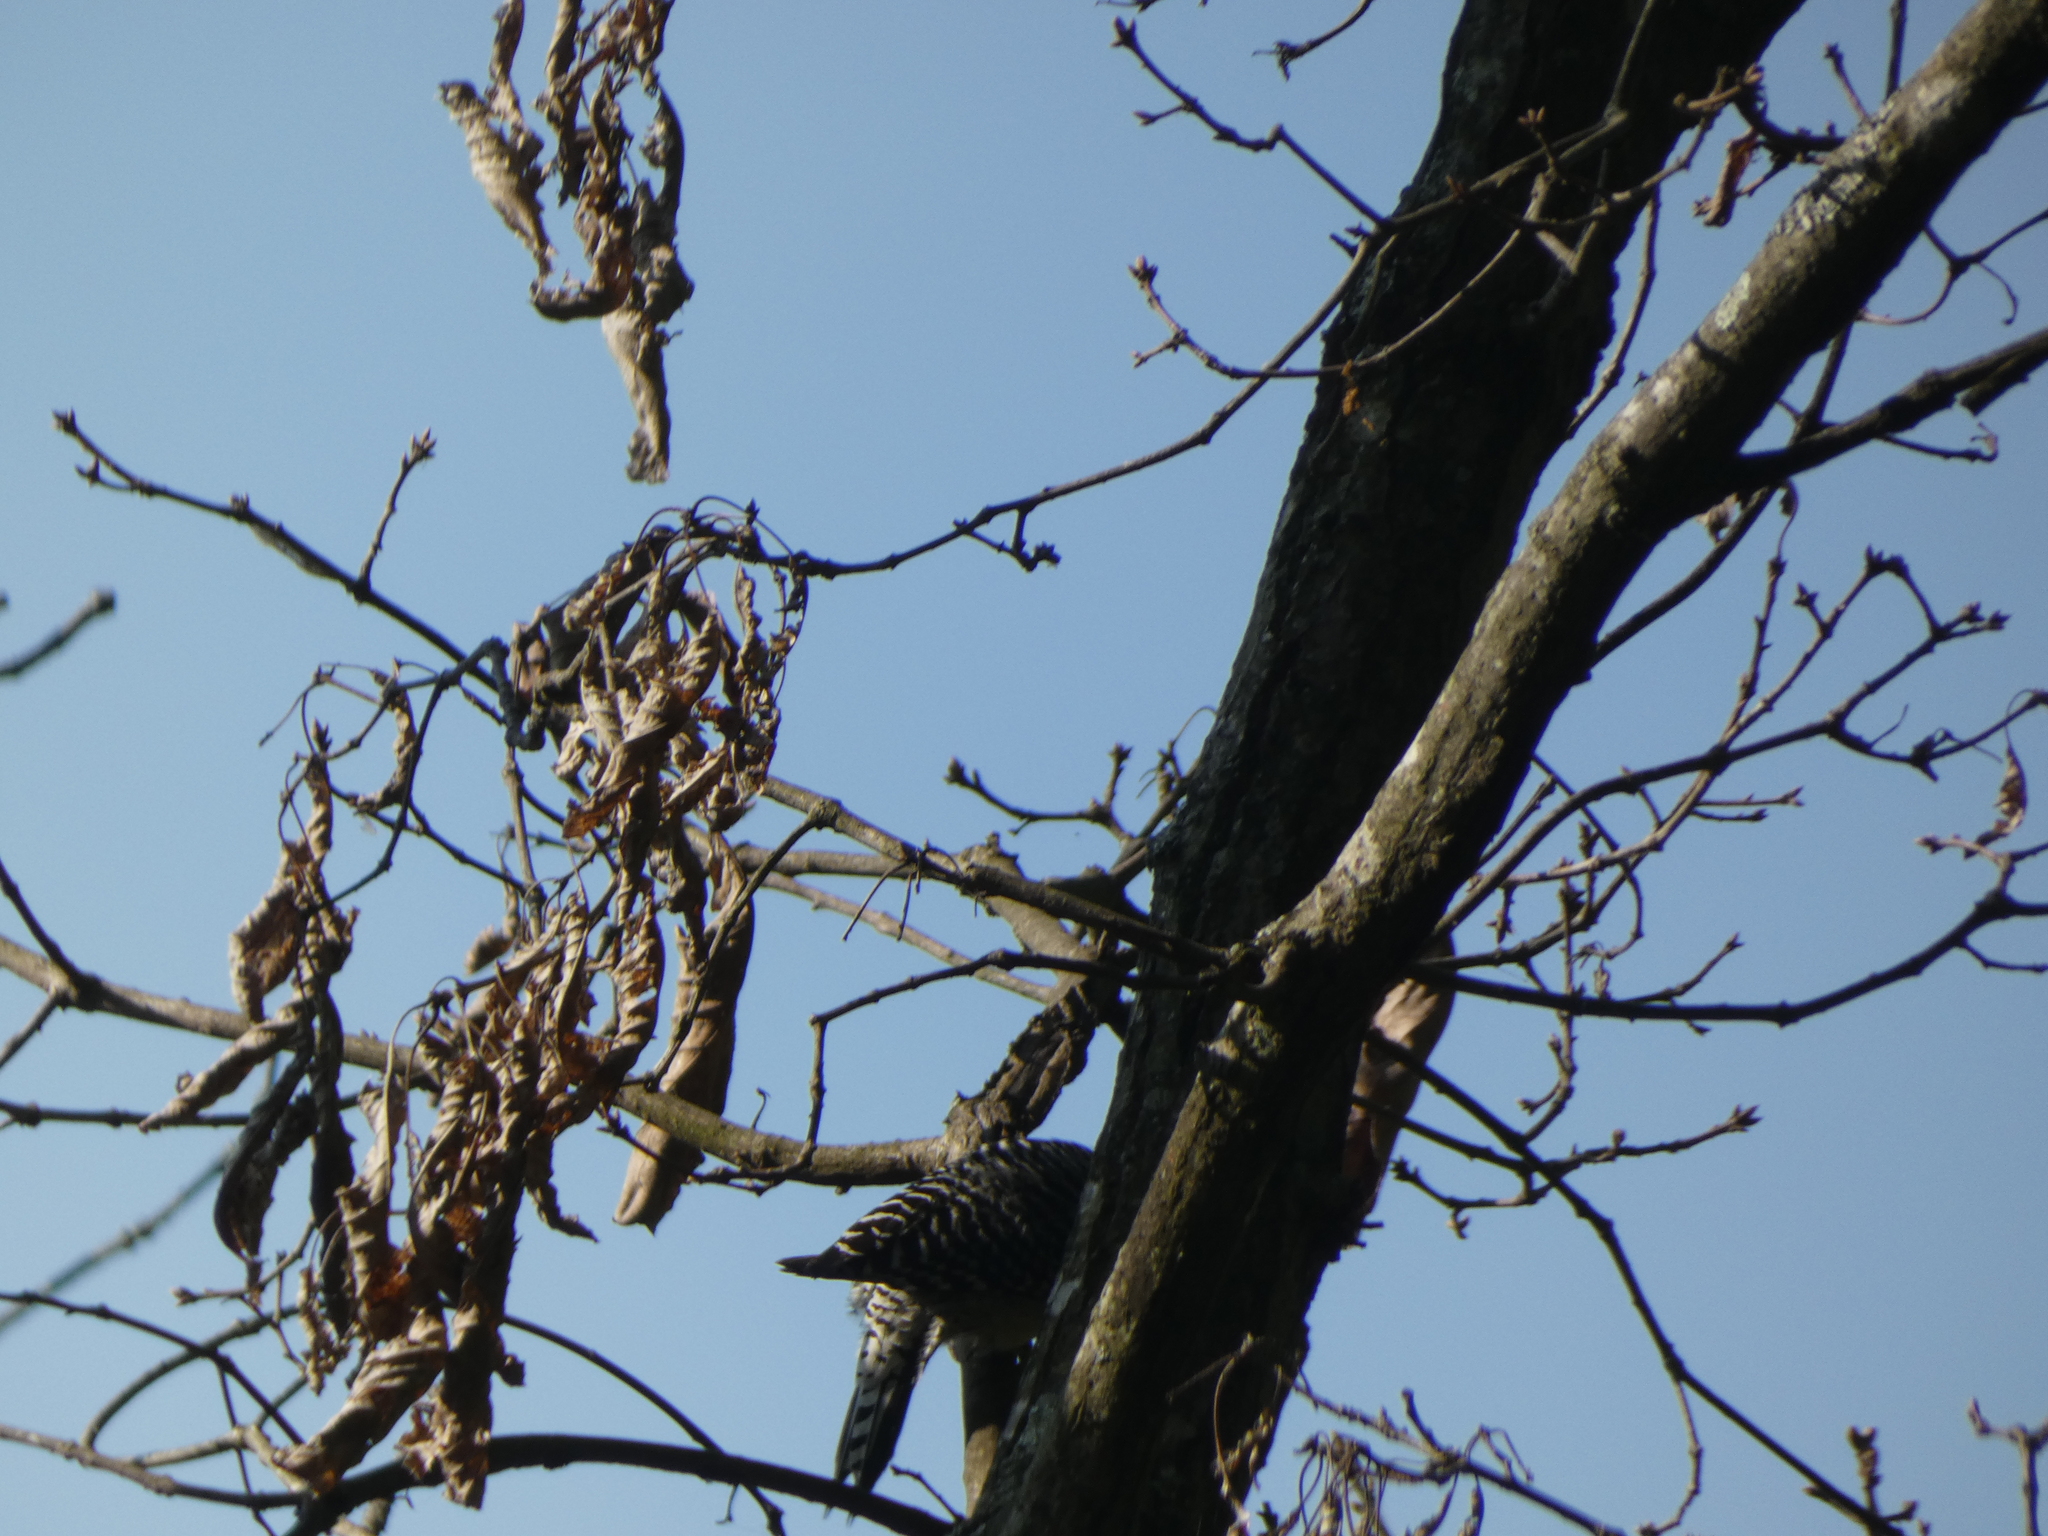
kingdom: Animalia
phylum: Chordata
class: Aves
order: Piciformes
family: Picidae
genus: Melanerpes
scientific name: Melanerpes carolinus
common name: Red-bellied woodpecker
